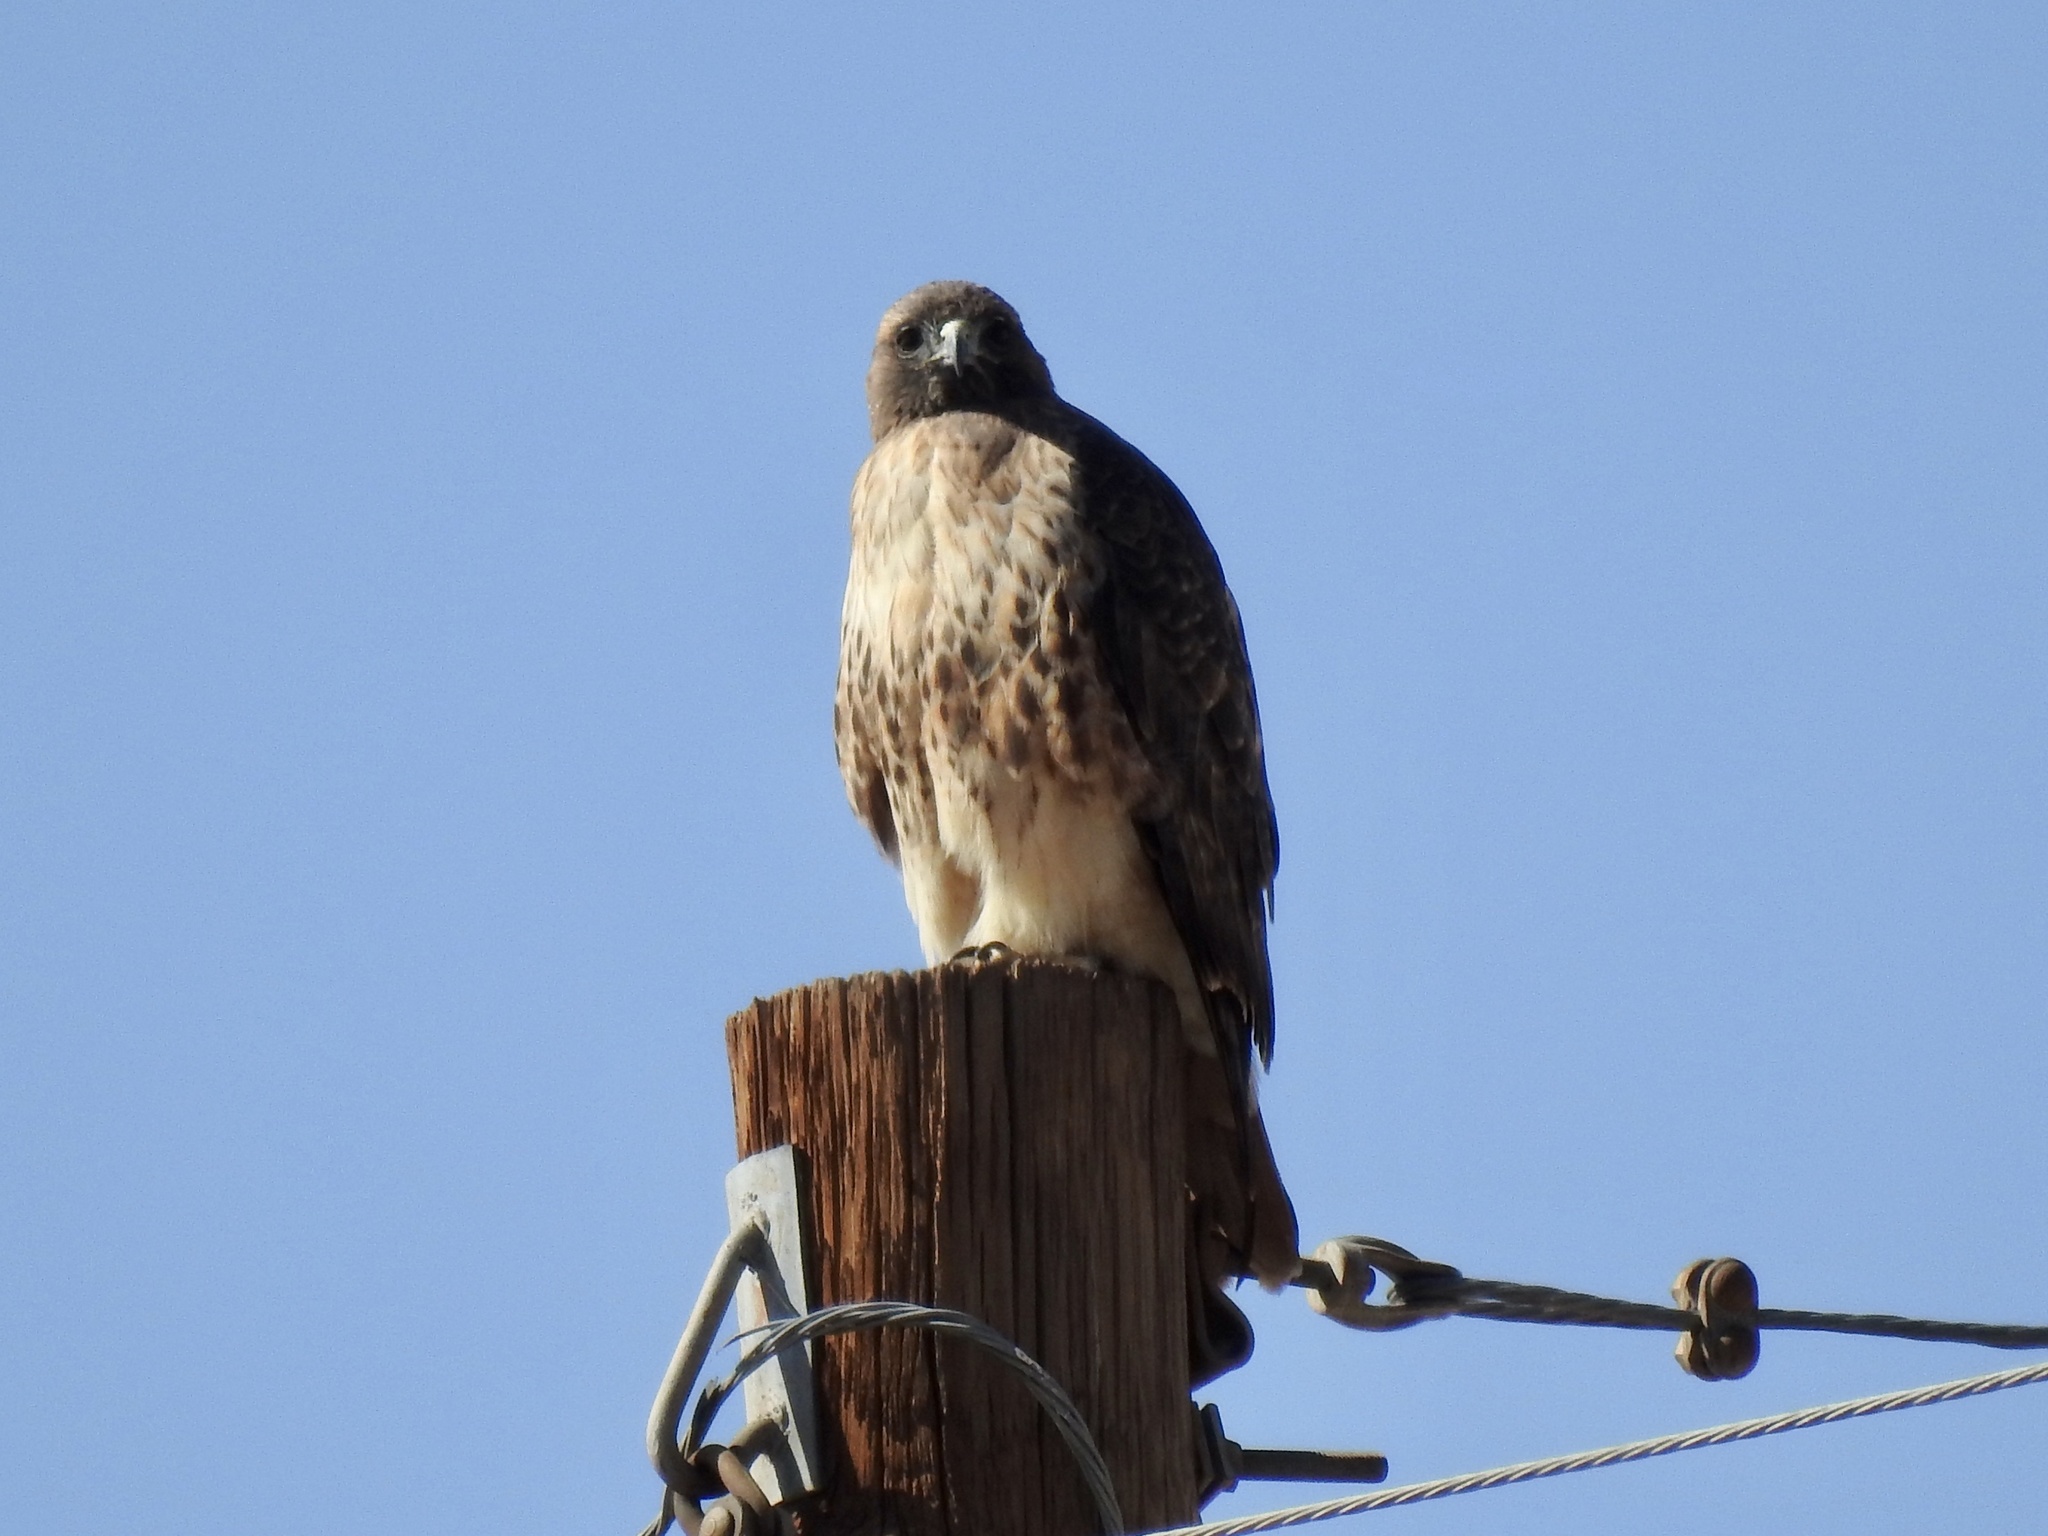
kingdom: Animalia
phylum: Chordata
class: Aves
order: Accipitriformes
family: Accipitridae
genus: Buteo
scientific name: Buteo jamaicensis
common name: Red-tailed hawk
